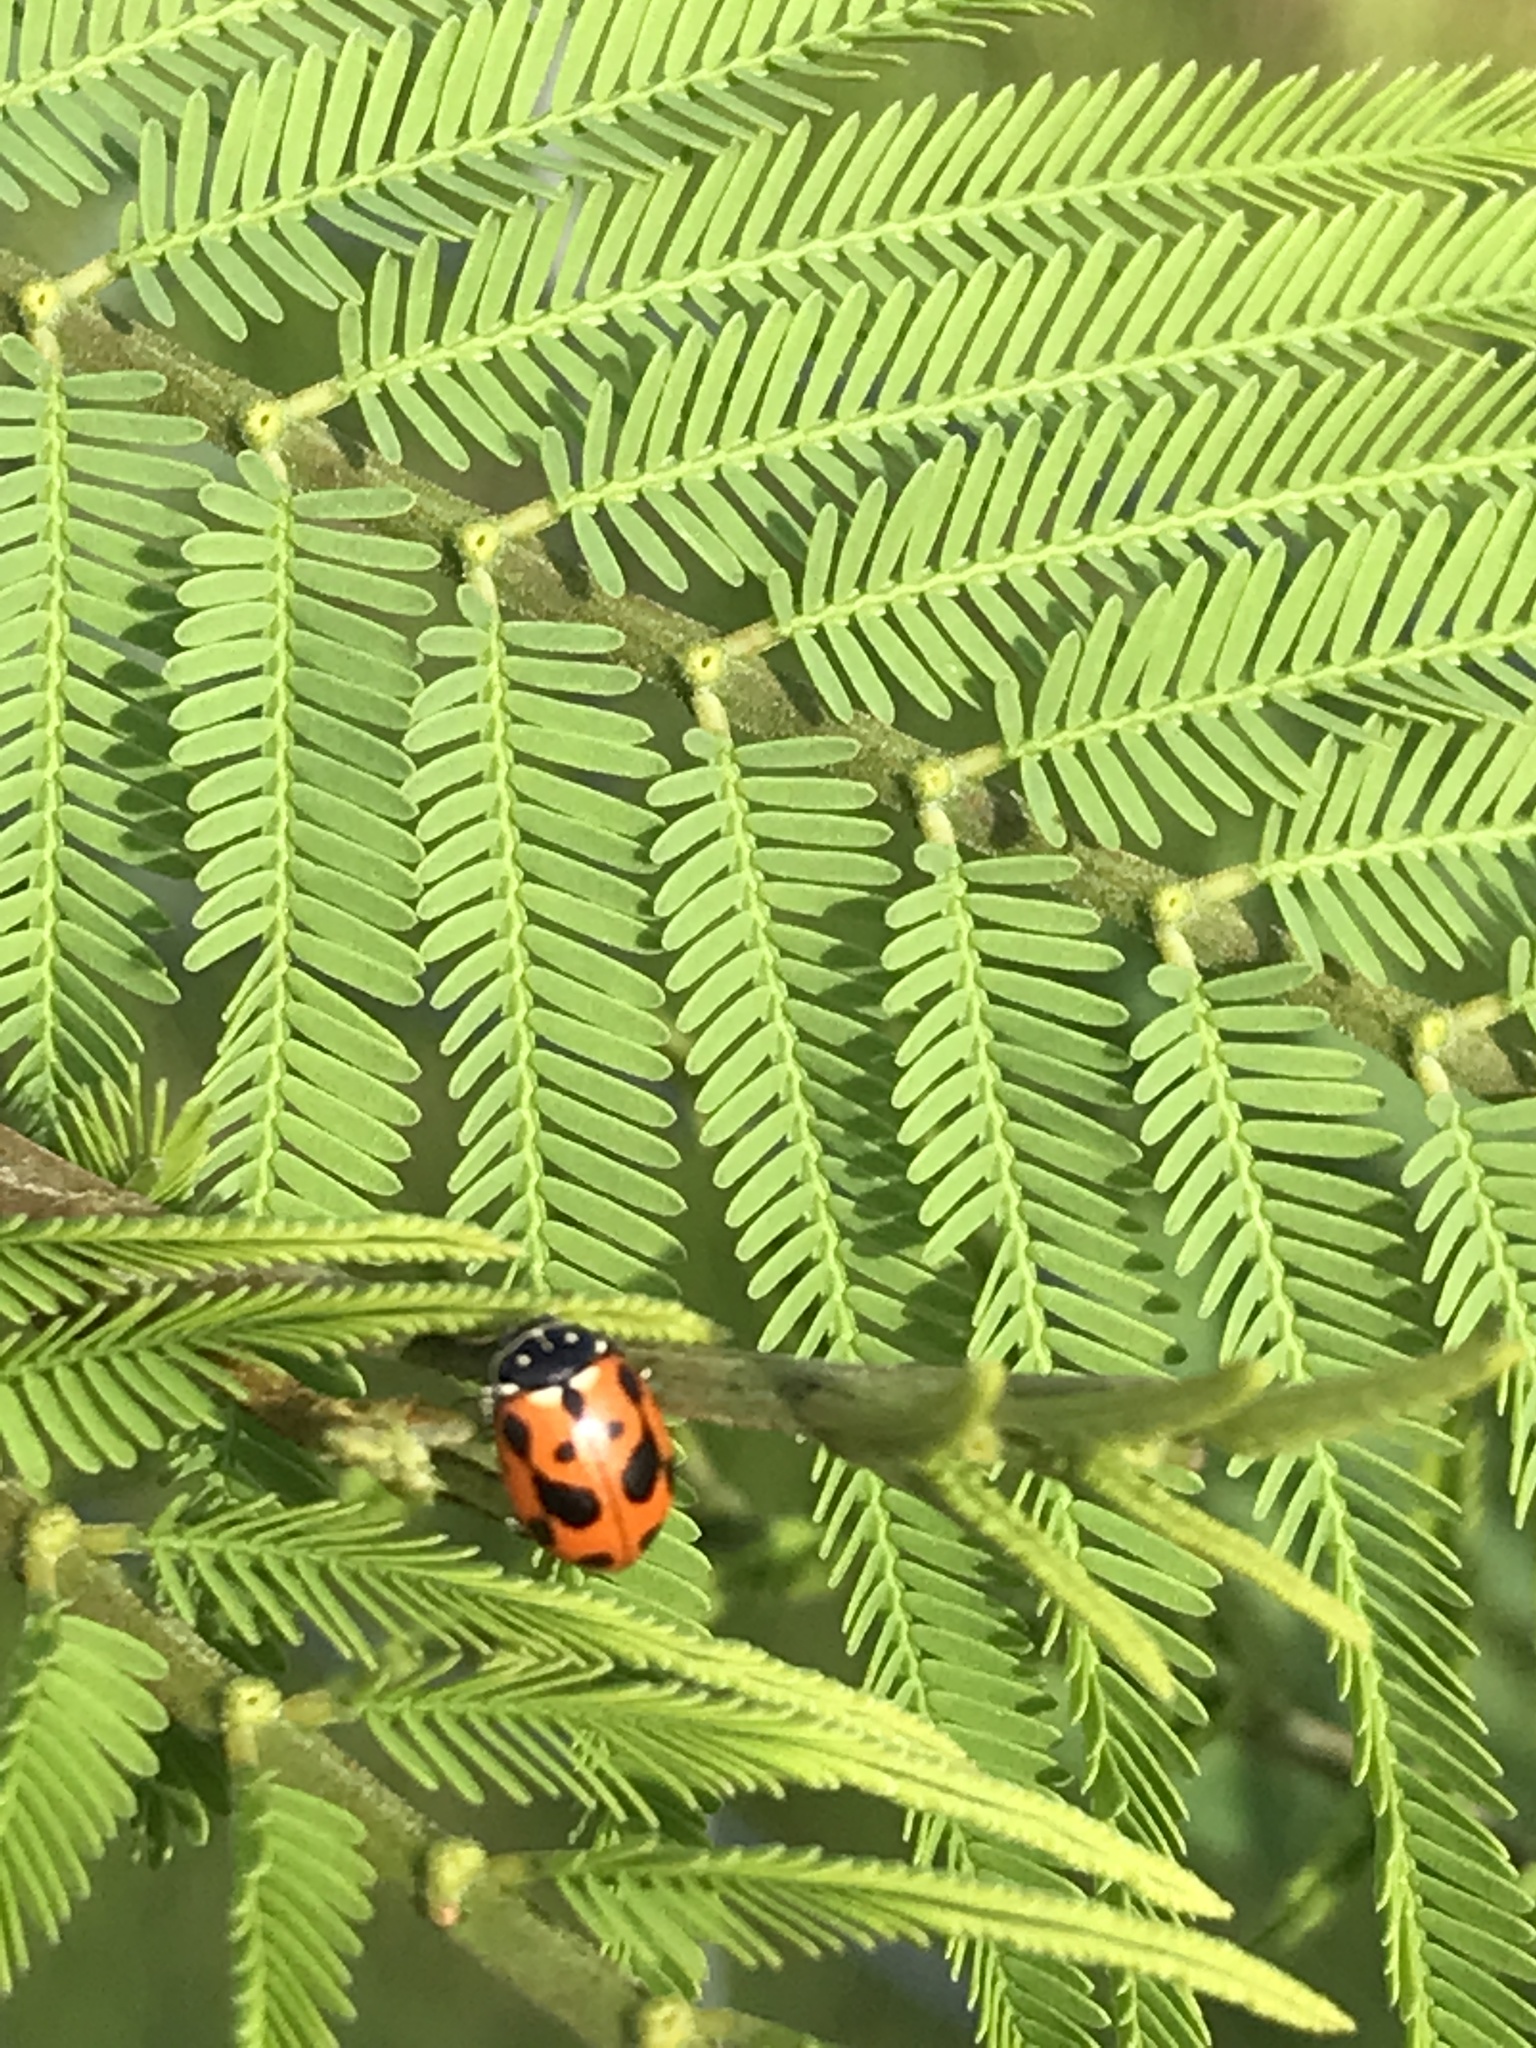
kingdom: Animalia
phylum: Arthropoda
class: Insecta
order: Coleoptera
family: Coccinellidae
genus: Hippodamia
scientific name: Hippodamia variegata
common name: Ladybird beetle
